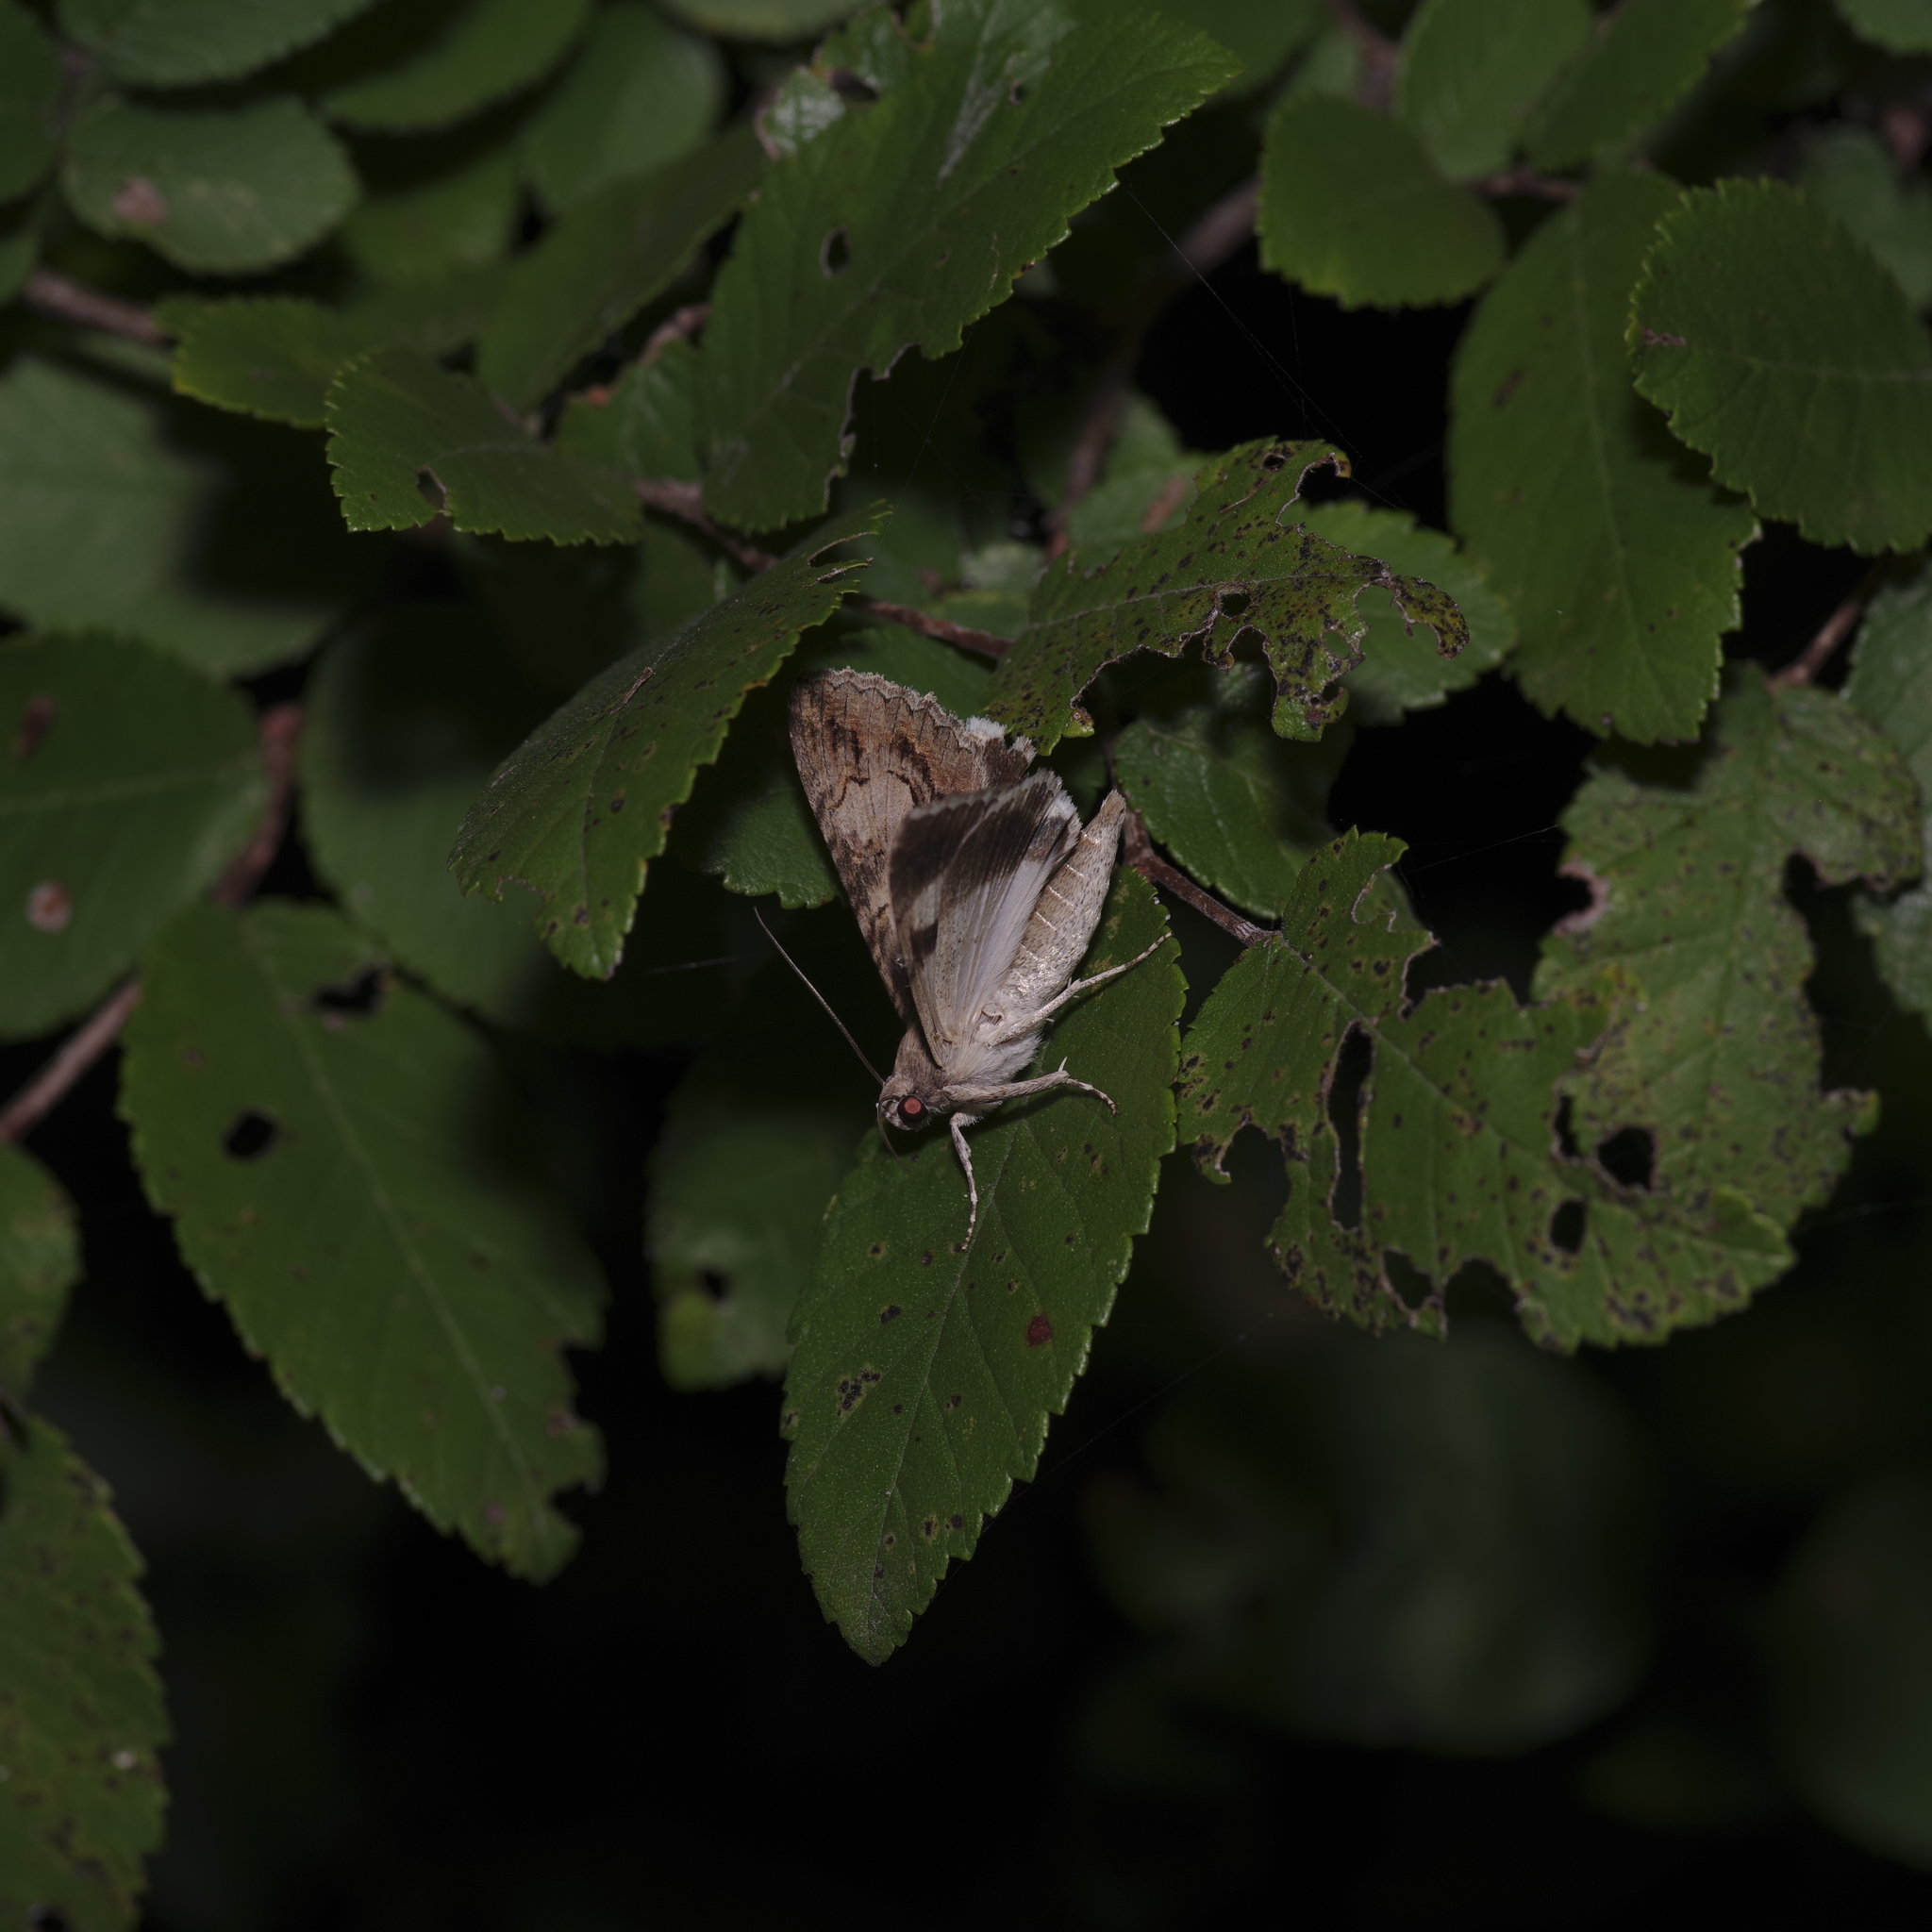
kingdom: Animalia
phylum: Arthropoda
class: Insecta
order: Lepidoptera
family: Erebidae
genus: Melipotis
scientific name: Melipotis jucunda
